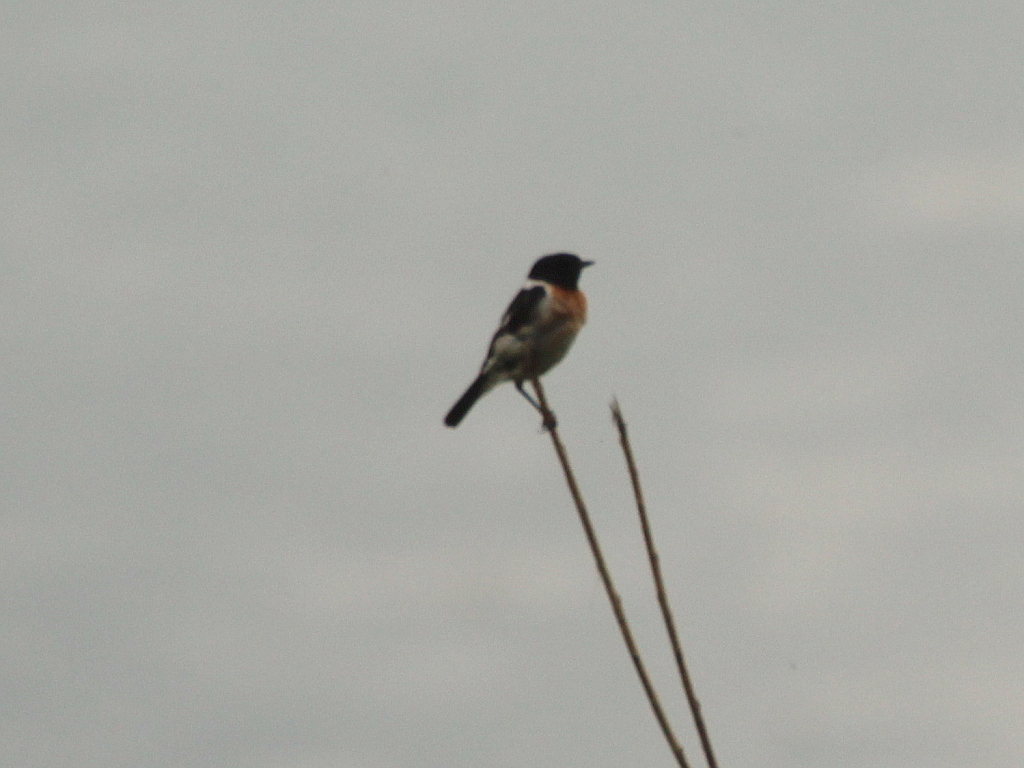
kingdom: Animalia
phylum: Chordata
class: Aves
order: Passeriformes
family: Muscicapidae
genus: Saxicola
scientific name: Saxicola maurus
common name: Siberian stonechat
